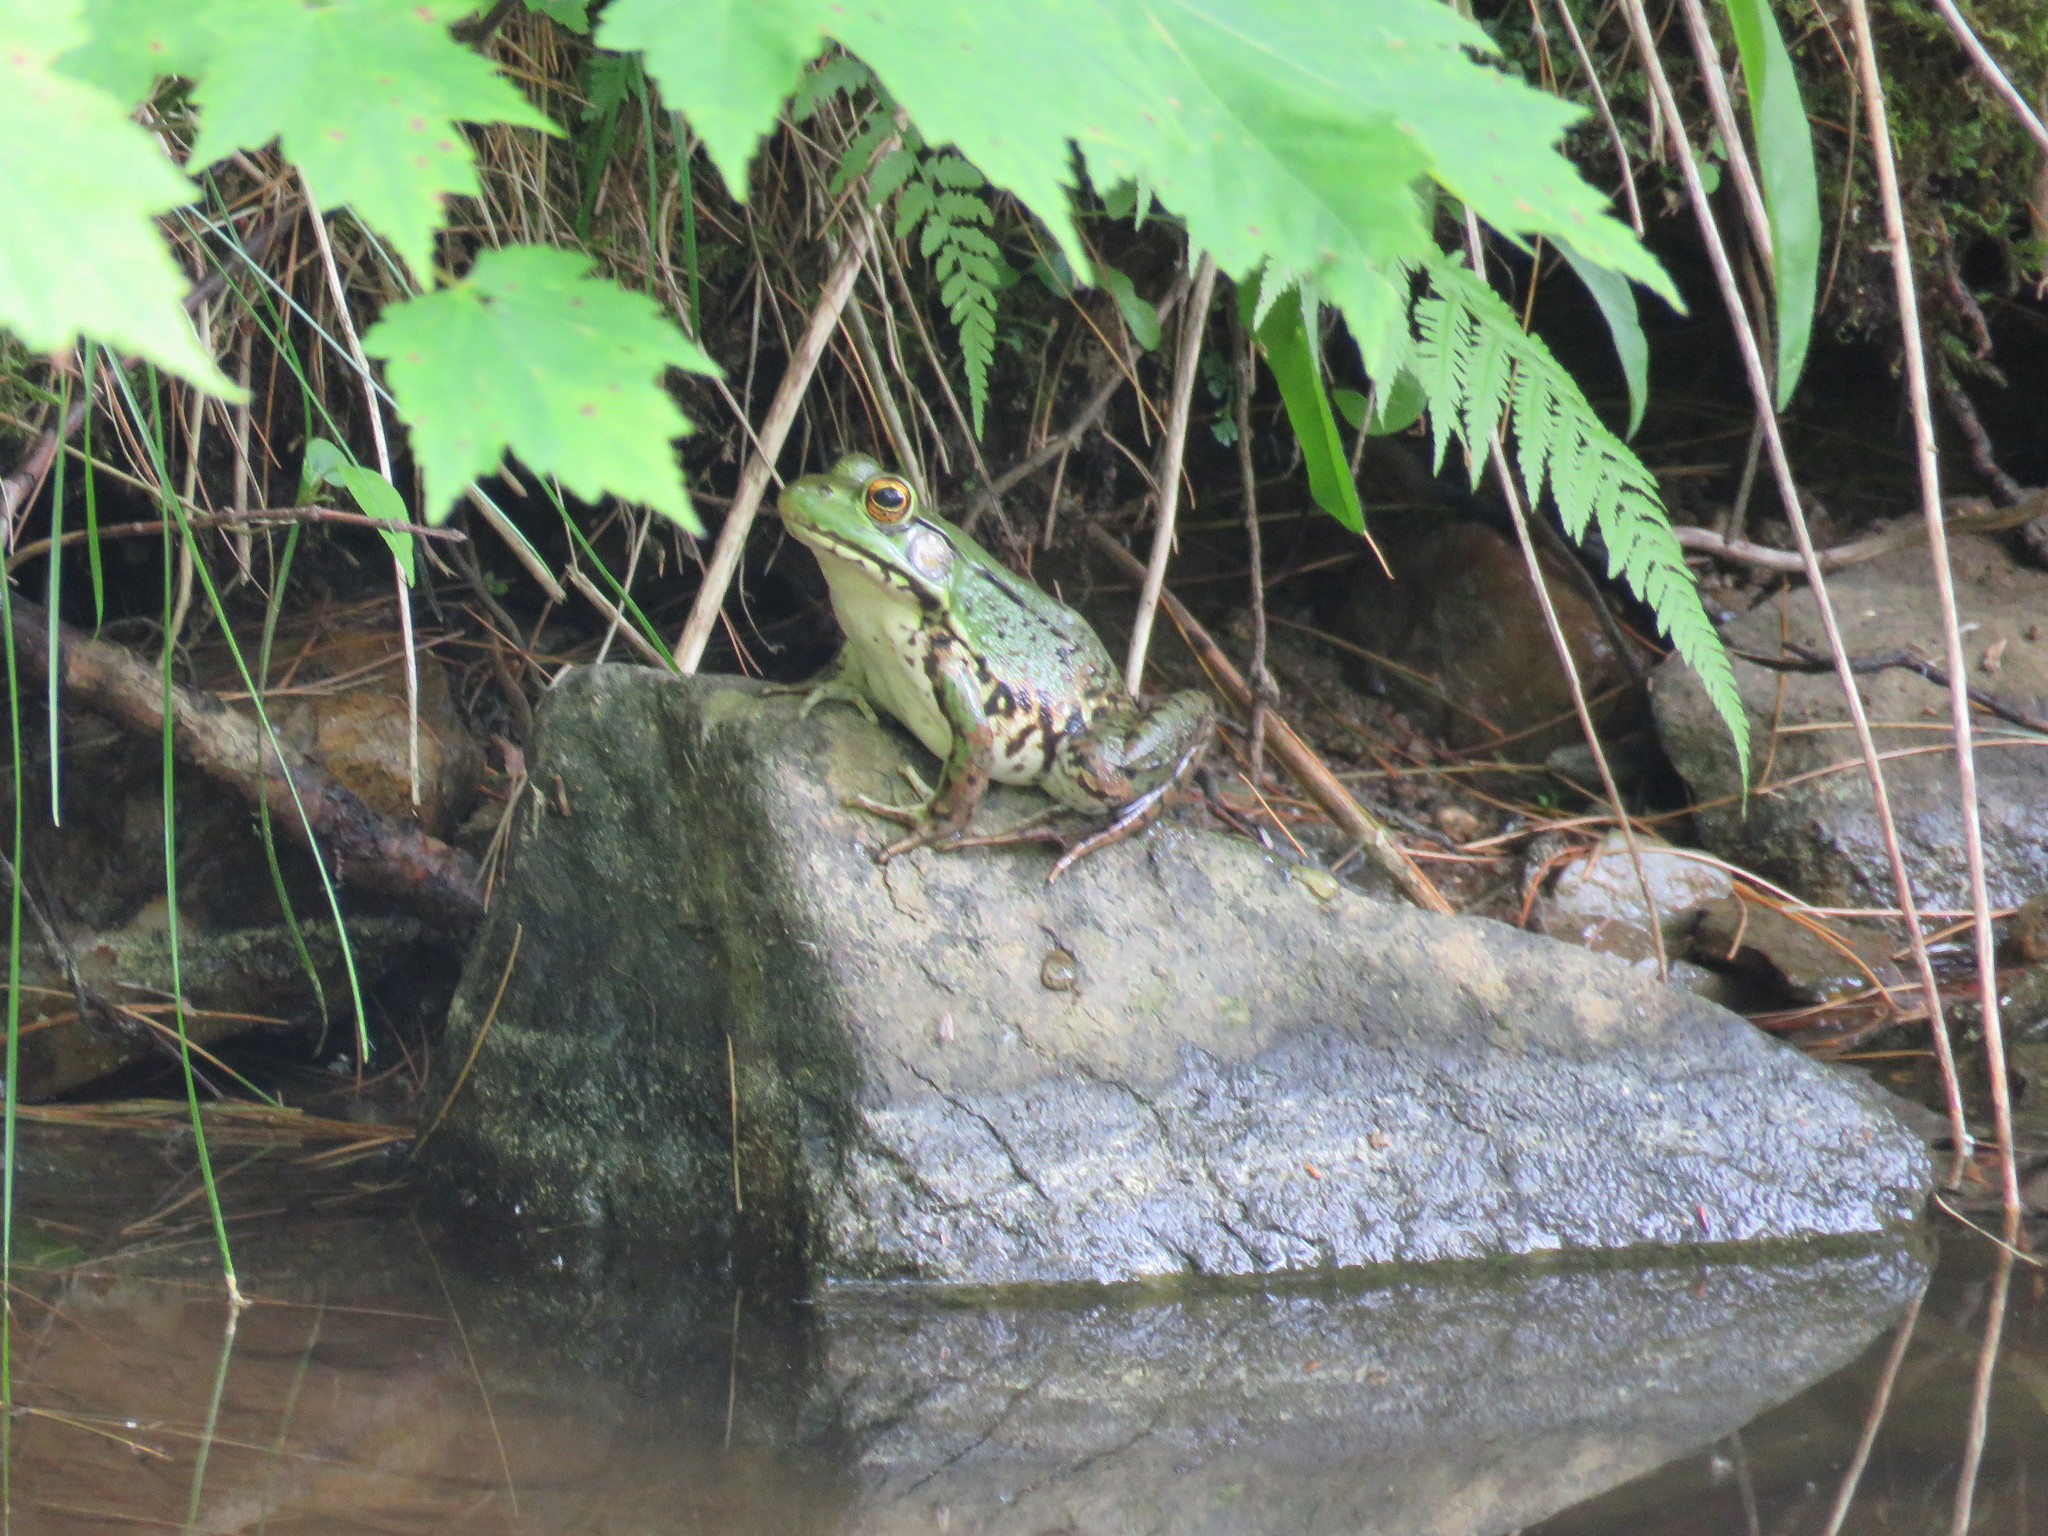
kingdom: Animalia
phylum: Chordata
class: Amphibia
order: Anura
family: Ranidae
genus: Lithobates
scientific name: Lithobates clamitans
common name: Green frog
